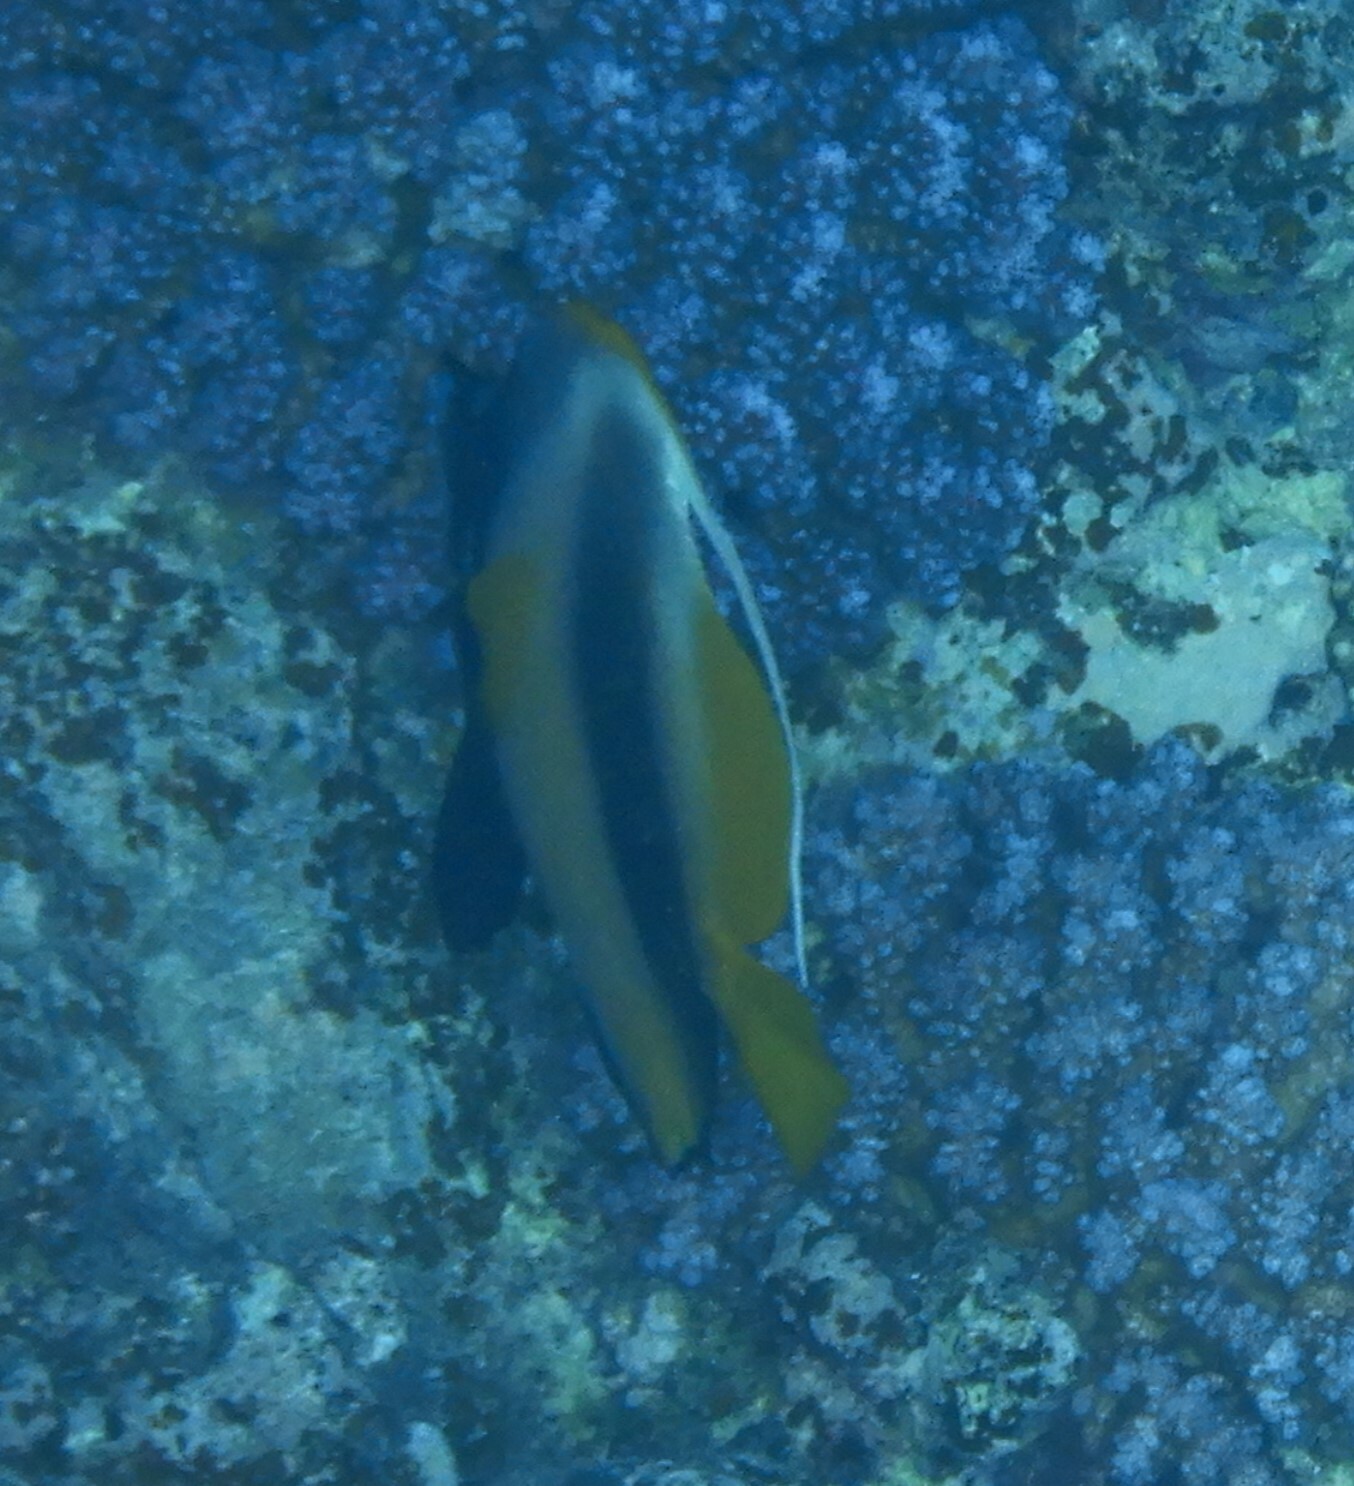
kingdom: Animalia
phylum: Chordata
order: Perciformes
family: Chaetodontidae
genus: Heniochus
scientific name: Heniochus intermedius
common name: Red sea bannerfish
